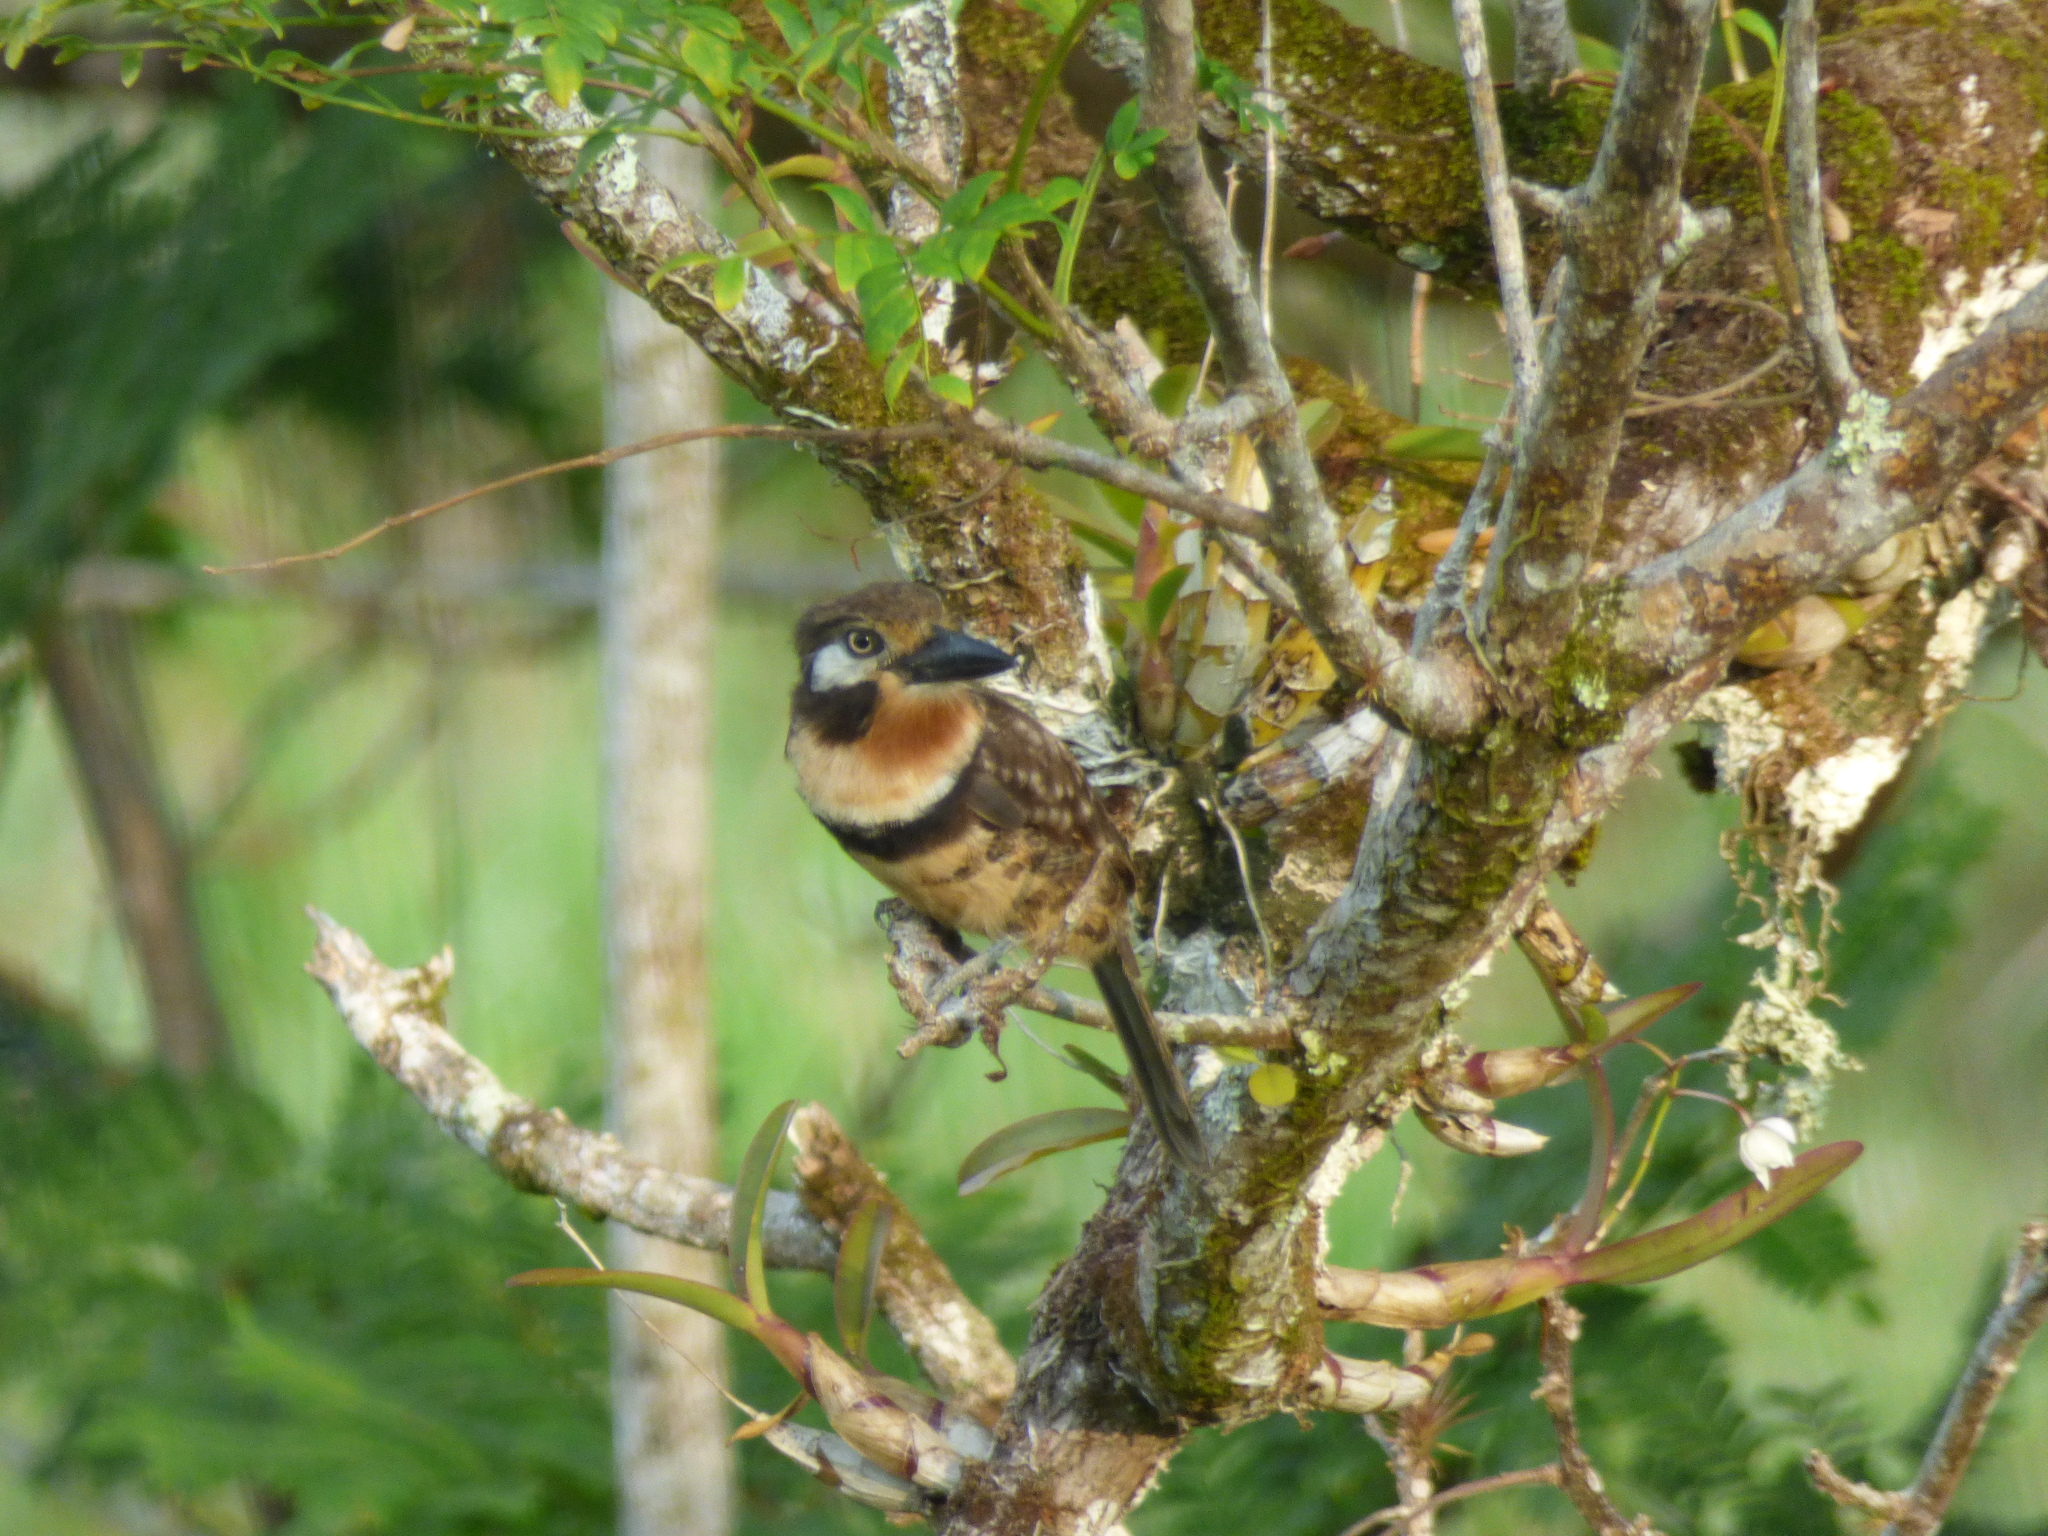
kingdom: Animalia
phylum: Chordata
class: Aves
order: Piciformes
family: Bucconidae
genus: Hypnelus
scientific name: Hypnelus ruficollis
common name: Russet-throated puffbird
